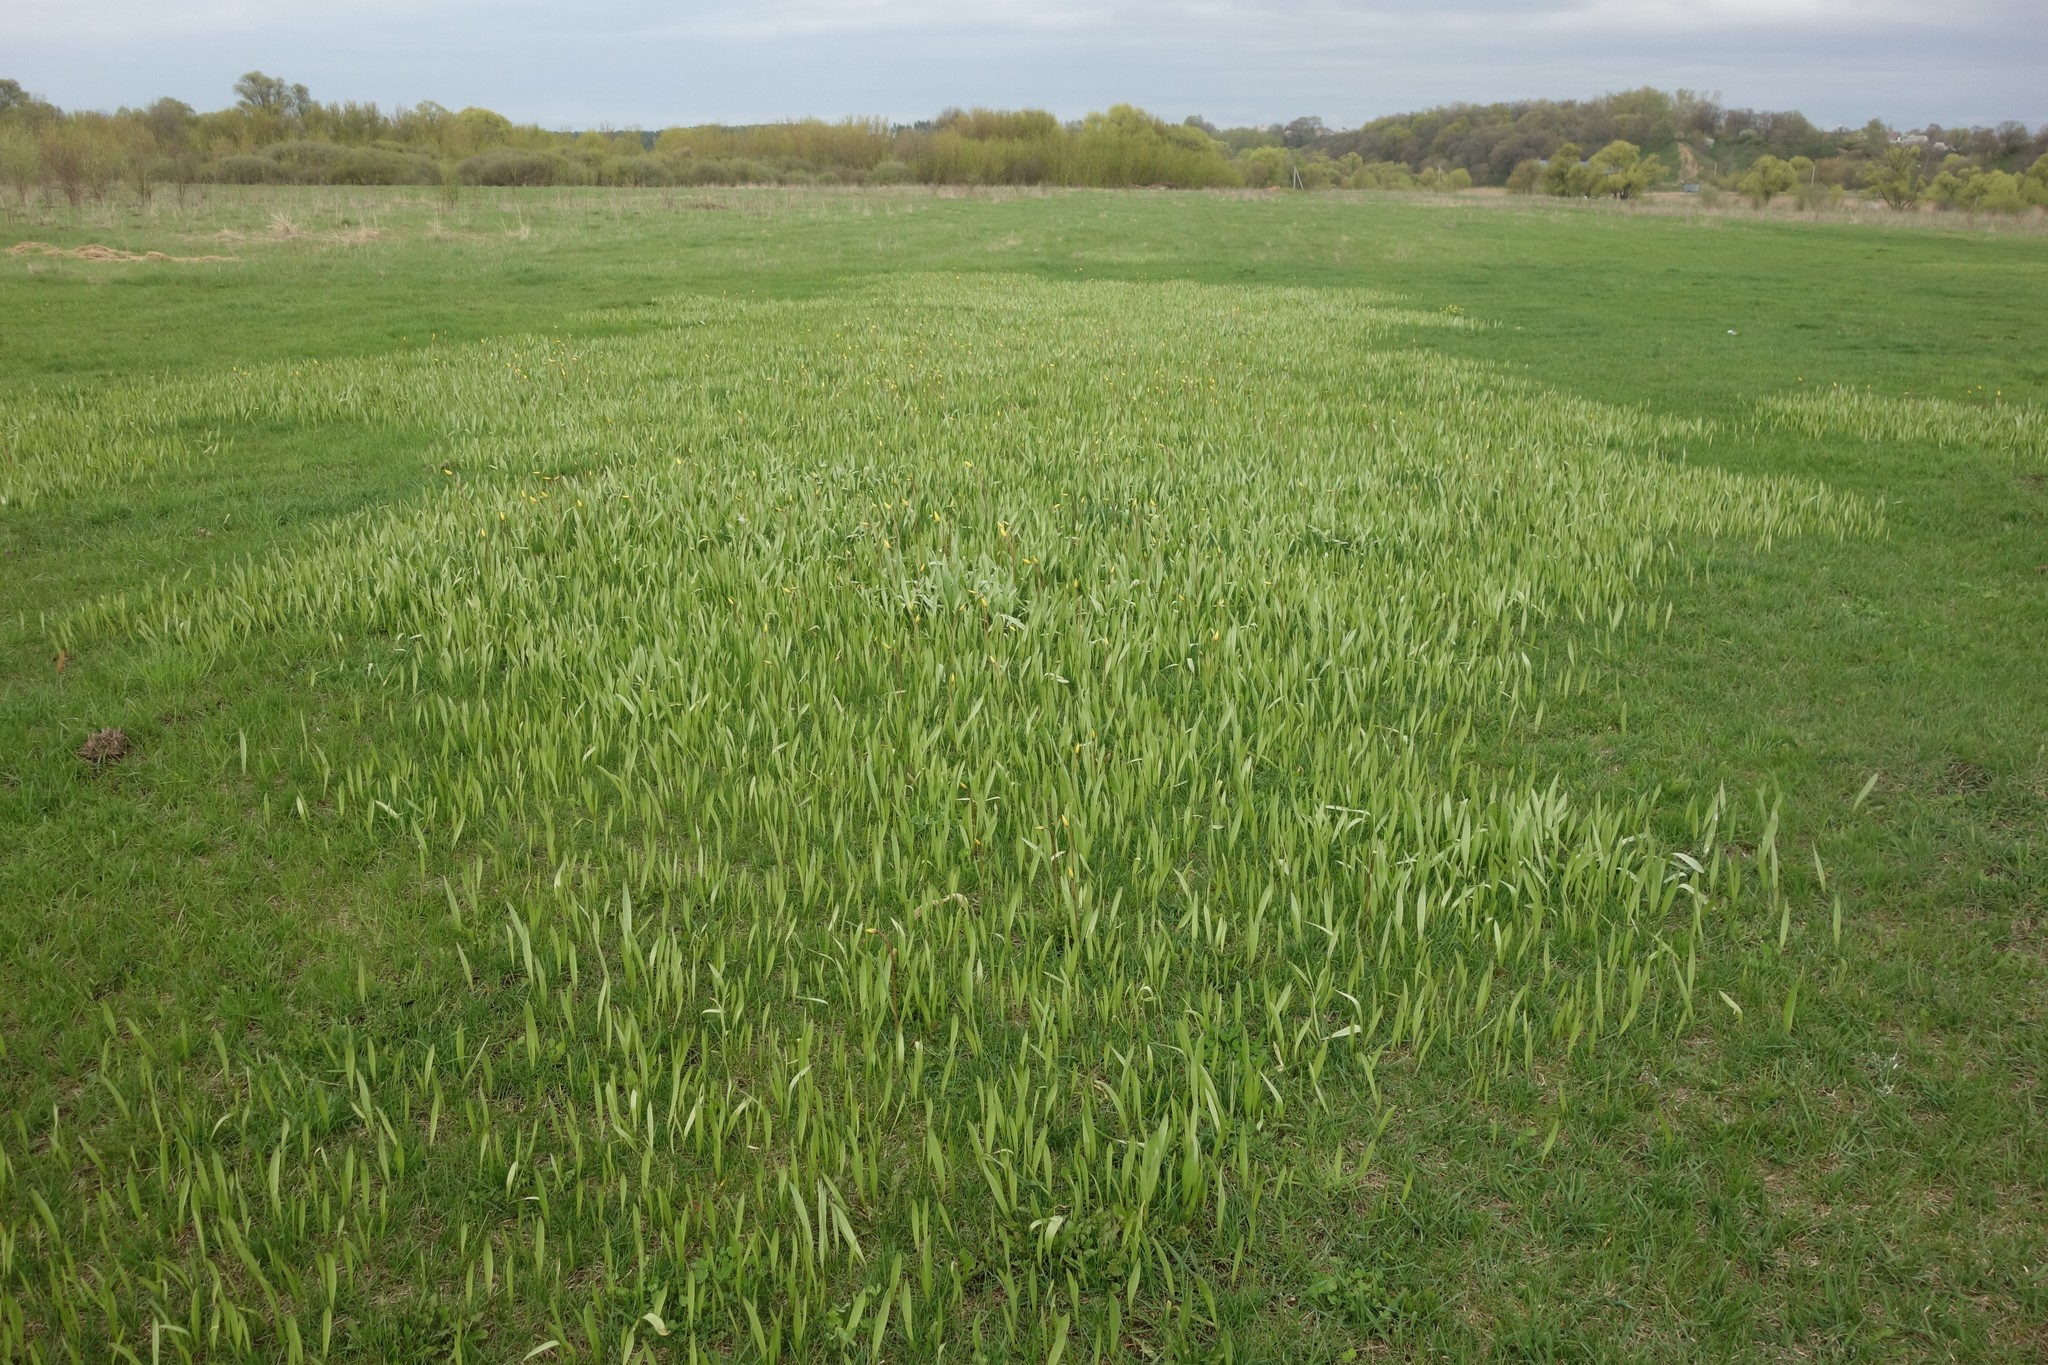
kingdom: Plantae
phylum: Tracheophyta
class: Liliopsida
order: Liliales
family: Liliaceae
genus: Tulipa
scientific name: Tulipa sylvestris
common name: Wild tulip
